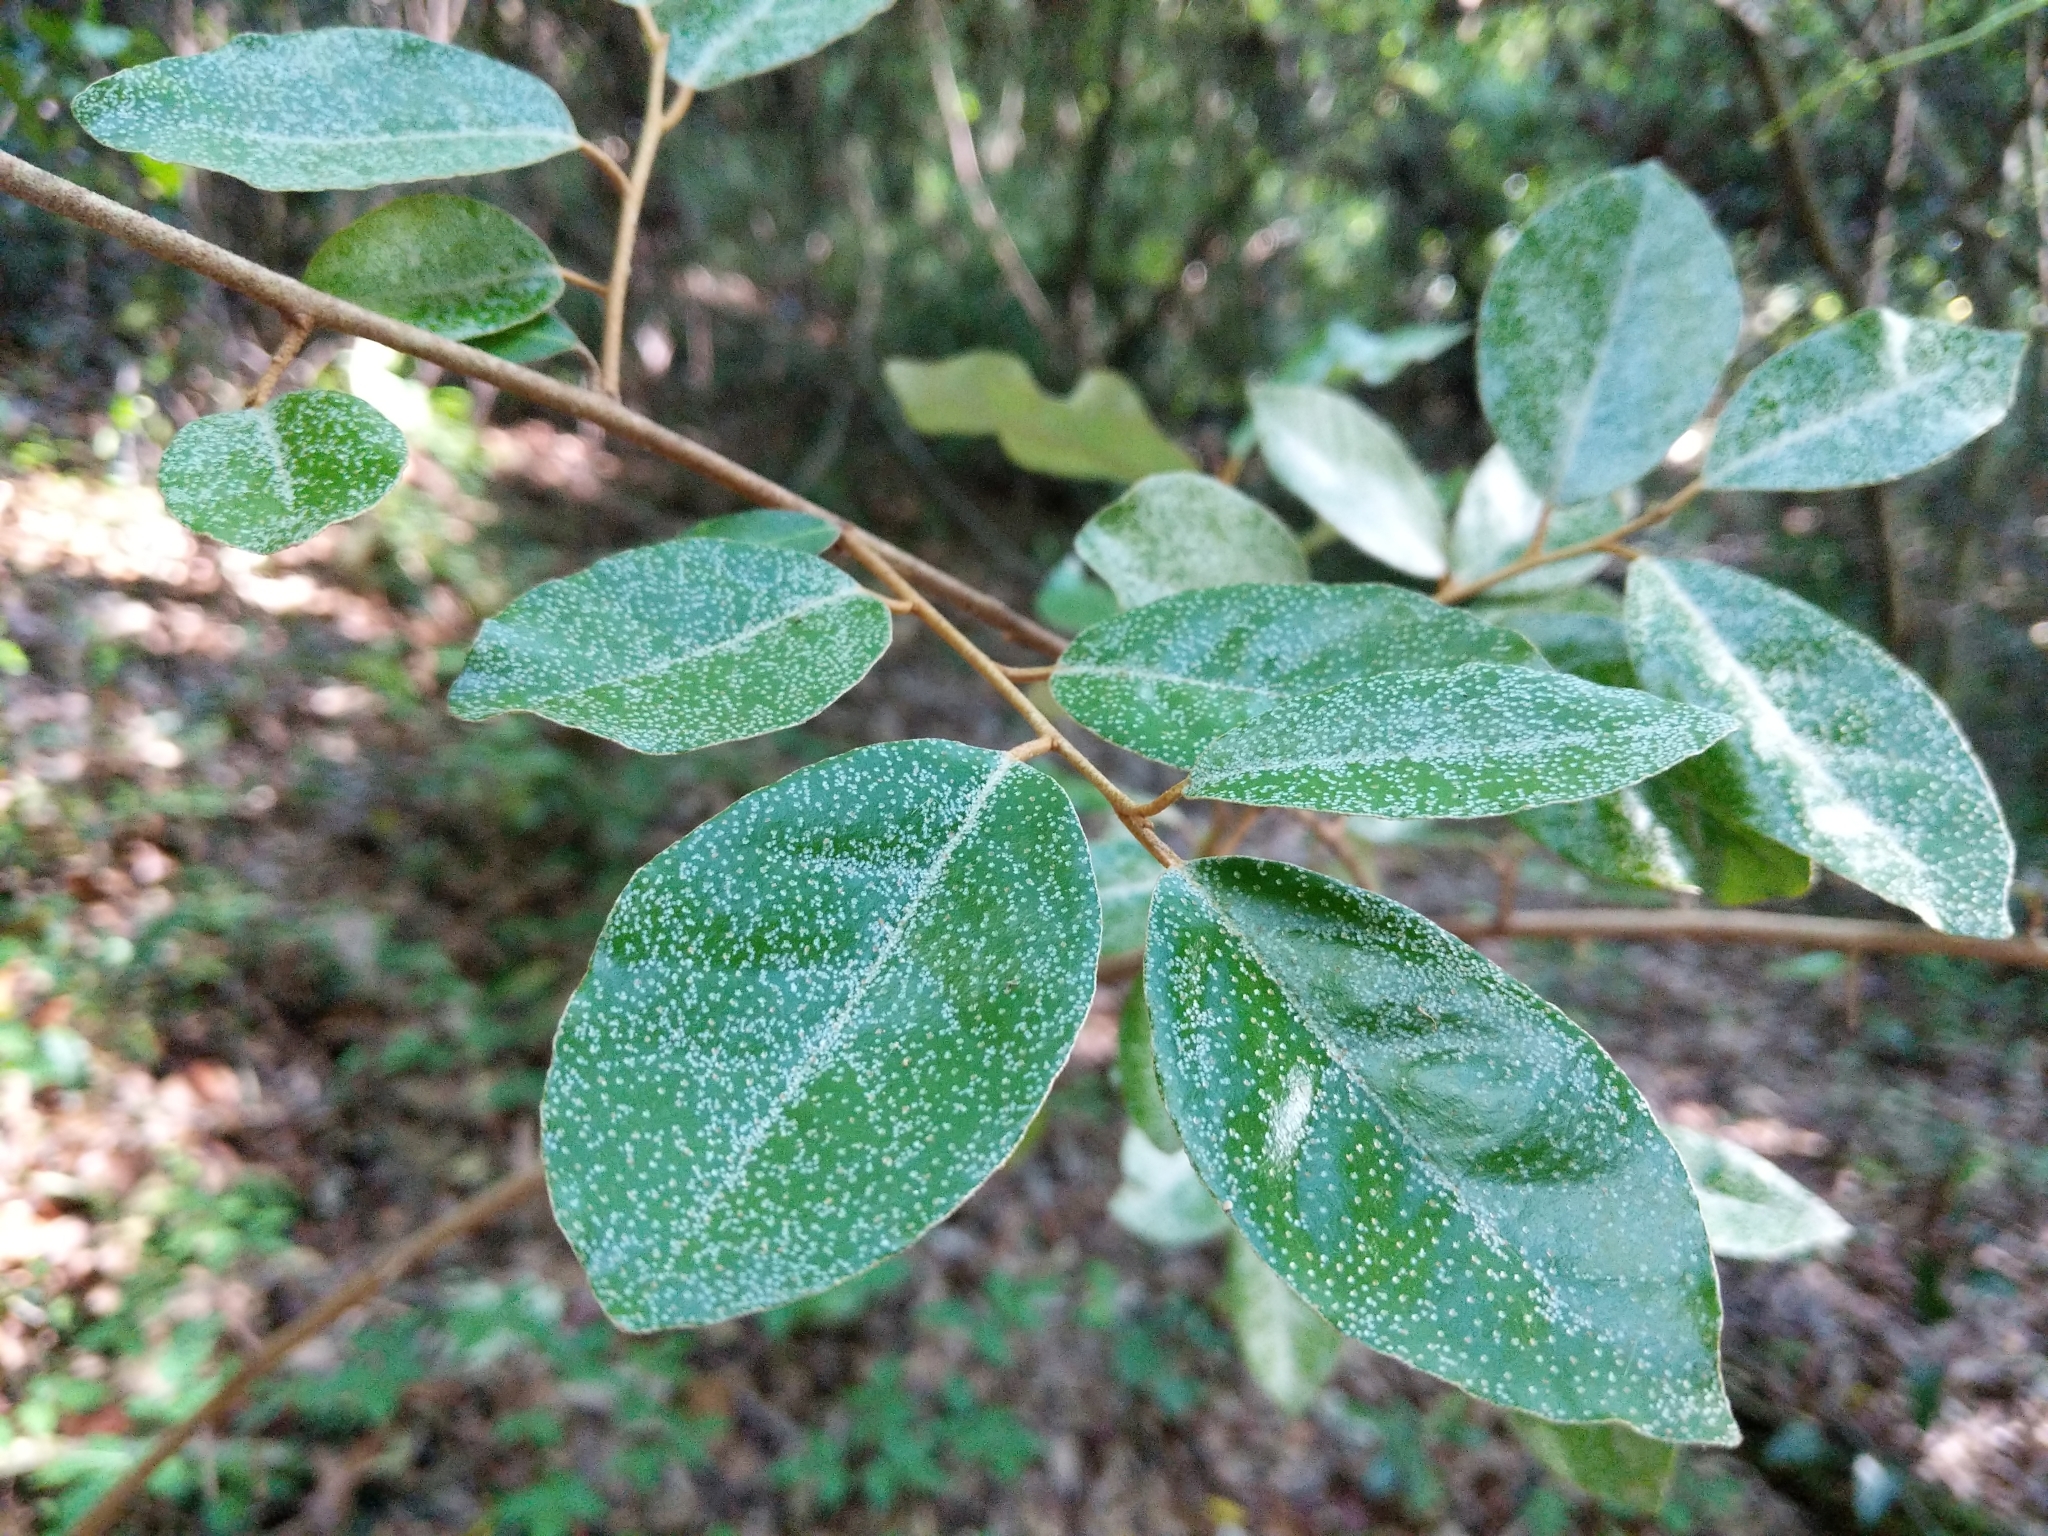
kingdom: Plantae
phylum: Tracheophyta
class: Magnoliopsida
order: Rosales
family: Elaeagnaceae
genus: Elaeagnus
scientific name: Elaeagnus pungens
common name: Spiny oleaster
